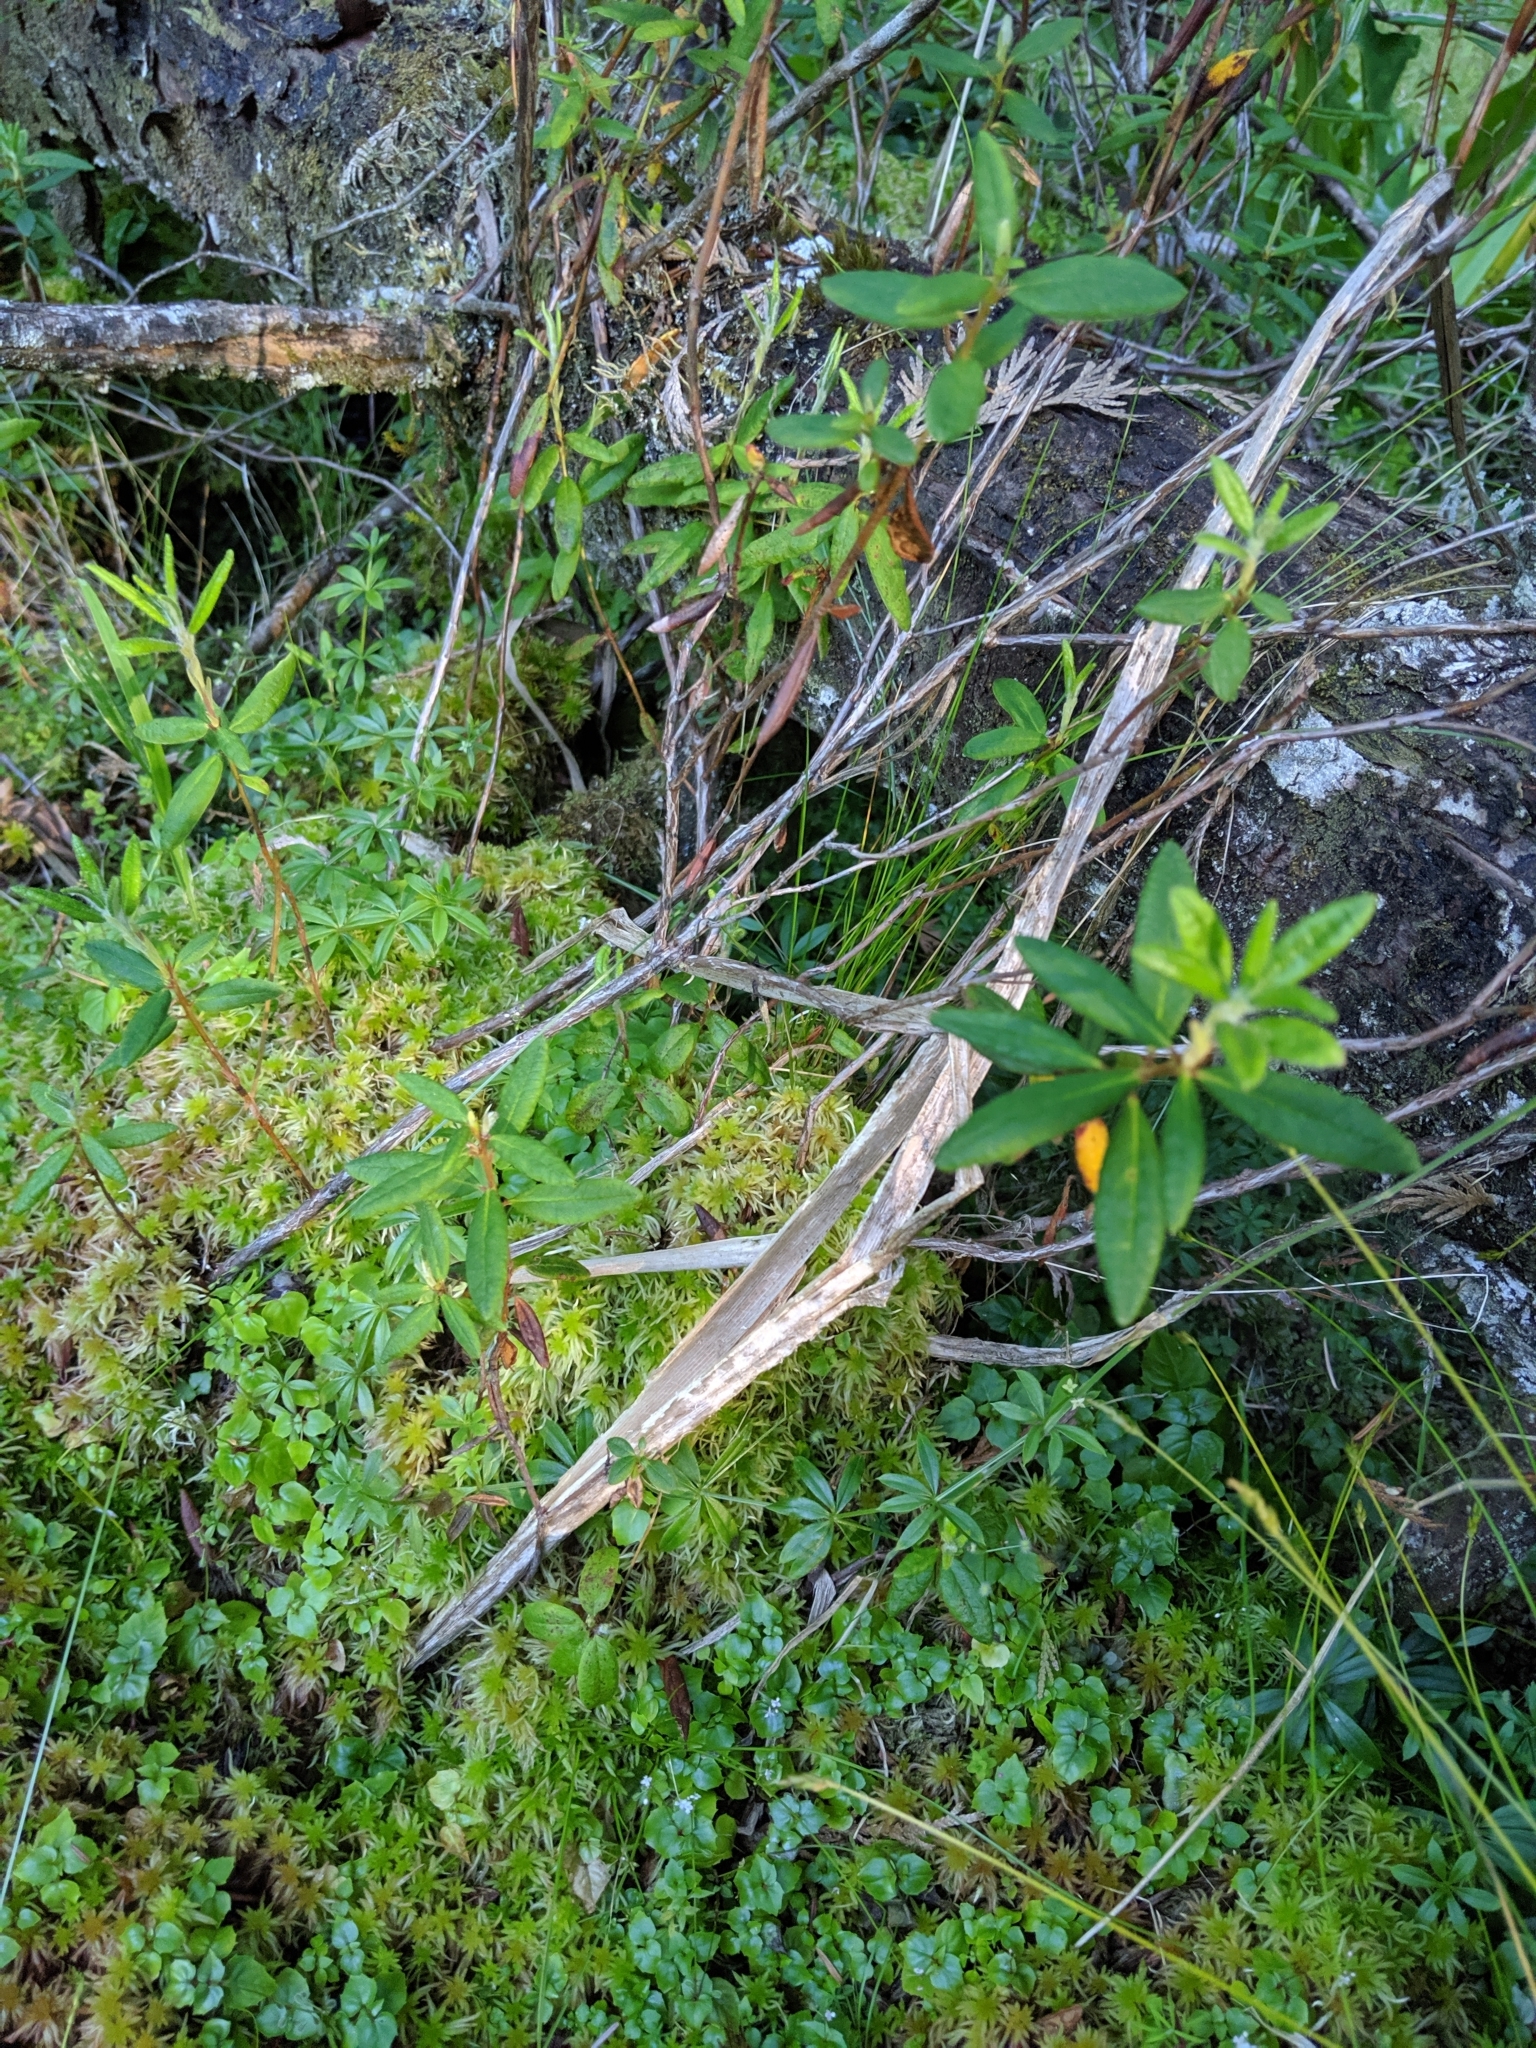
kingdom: Plantae
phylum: Tracheophyta
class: Magnoliopsida
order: Ericales
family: Ericaceae
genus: Rhododendron
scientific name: Rhododendron groenlandicum
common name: Bog labrador tea
